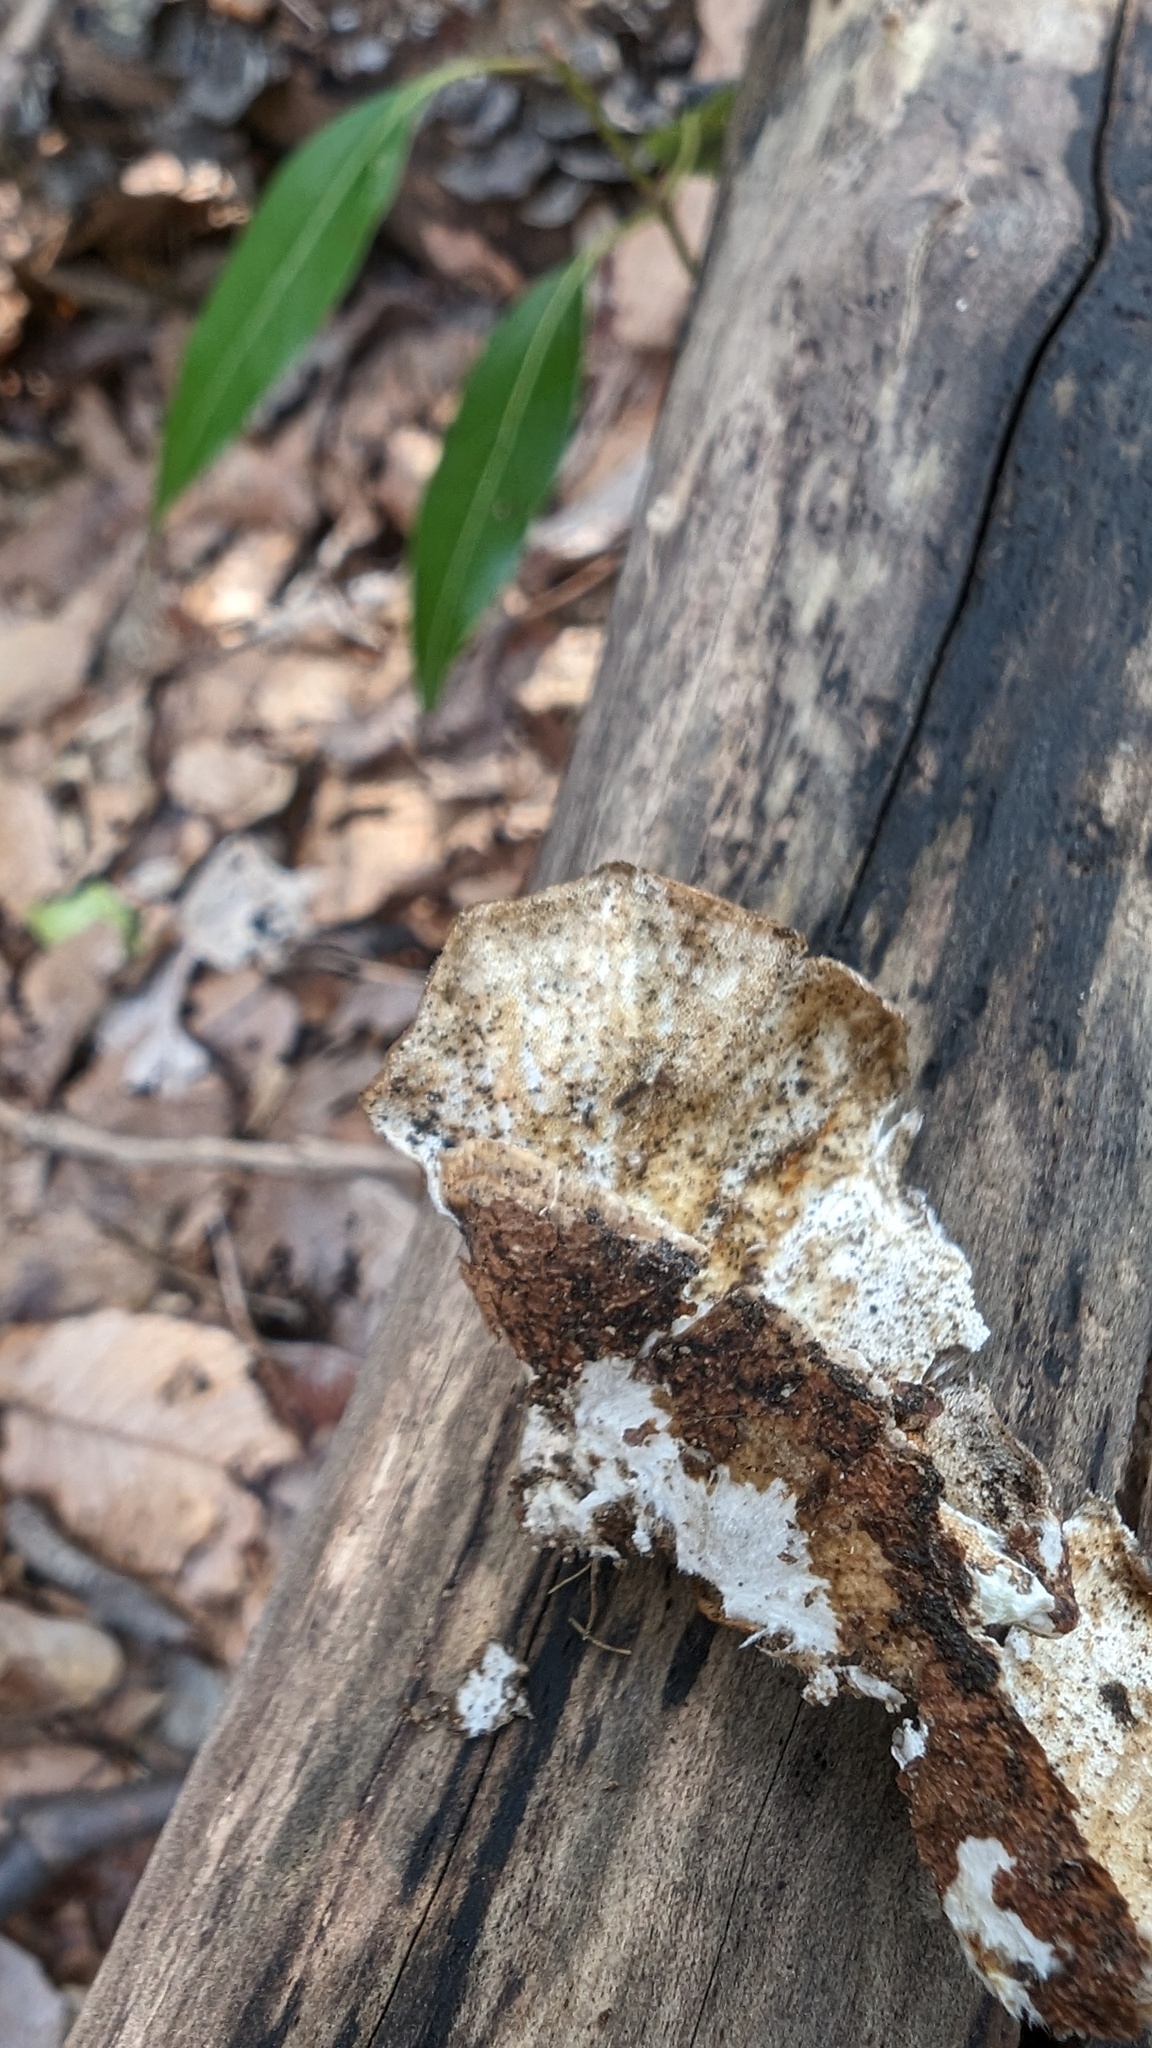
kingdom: Fungi
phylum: Basidiomycota
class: Agaricomycetes
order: Polyporales
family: Polyporaceae
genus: Trametes
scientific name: Trametes versicolor
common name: Turkeytail
